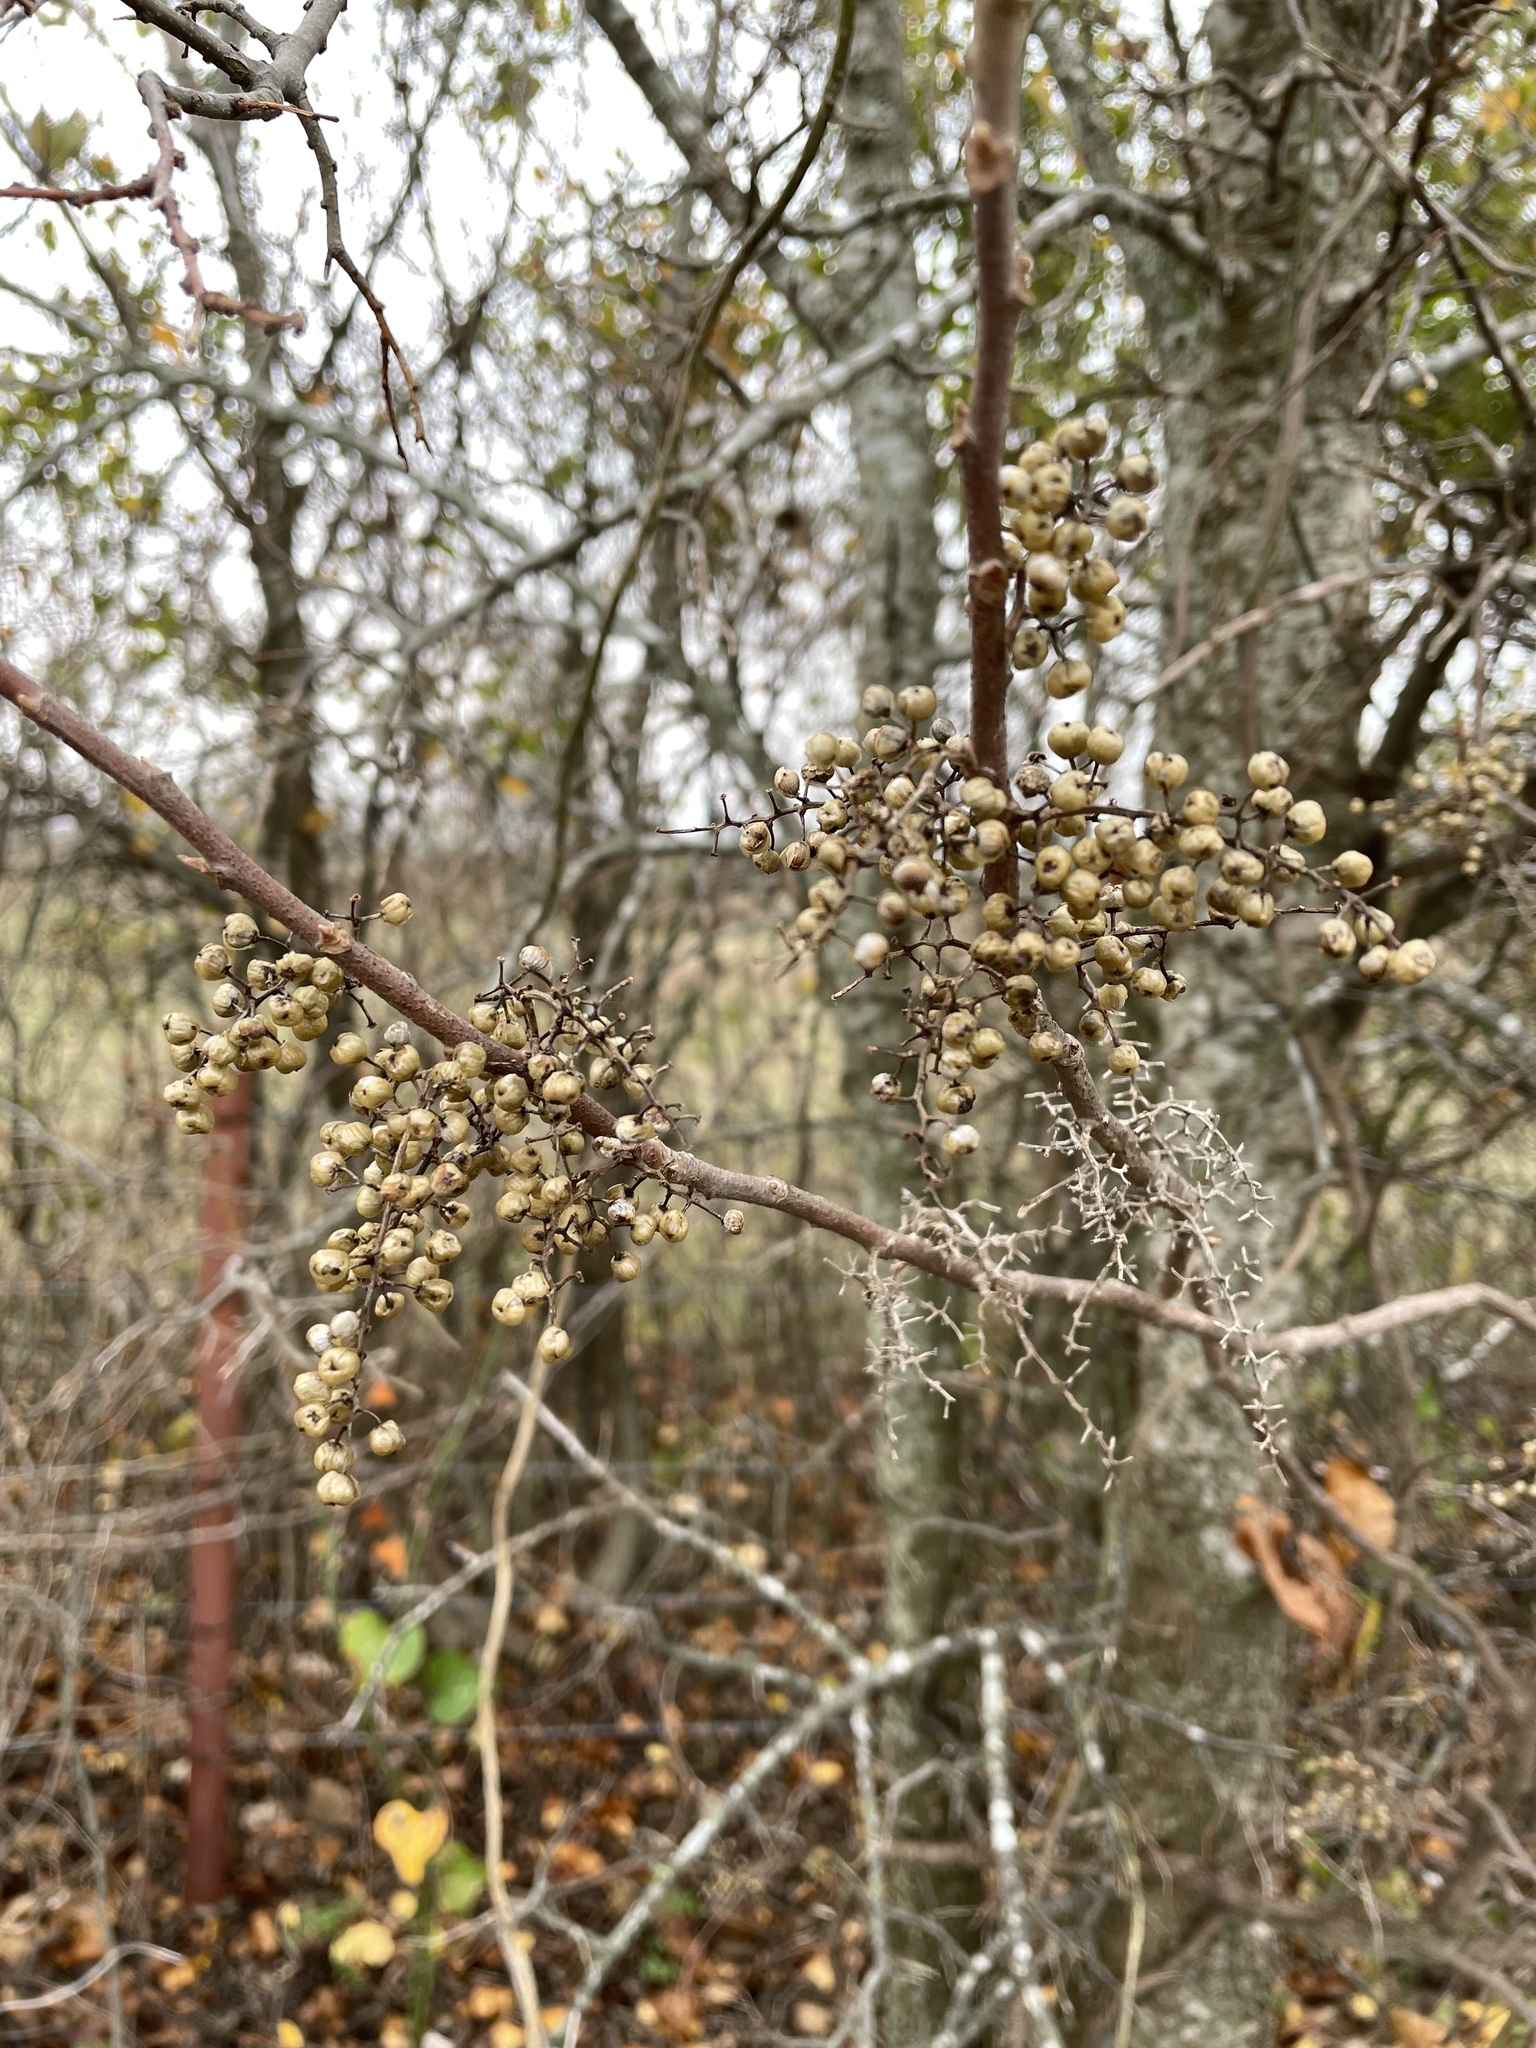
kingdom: Plantae
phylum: Tracheophyta
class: Magnoliopsida
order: Sapindales
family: Anacardiaceae
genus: Toxicodendron
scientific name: Toxicodendron radicans
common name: Poison ivy
